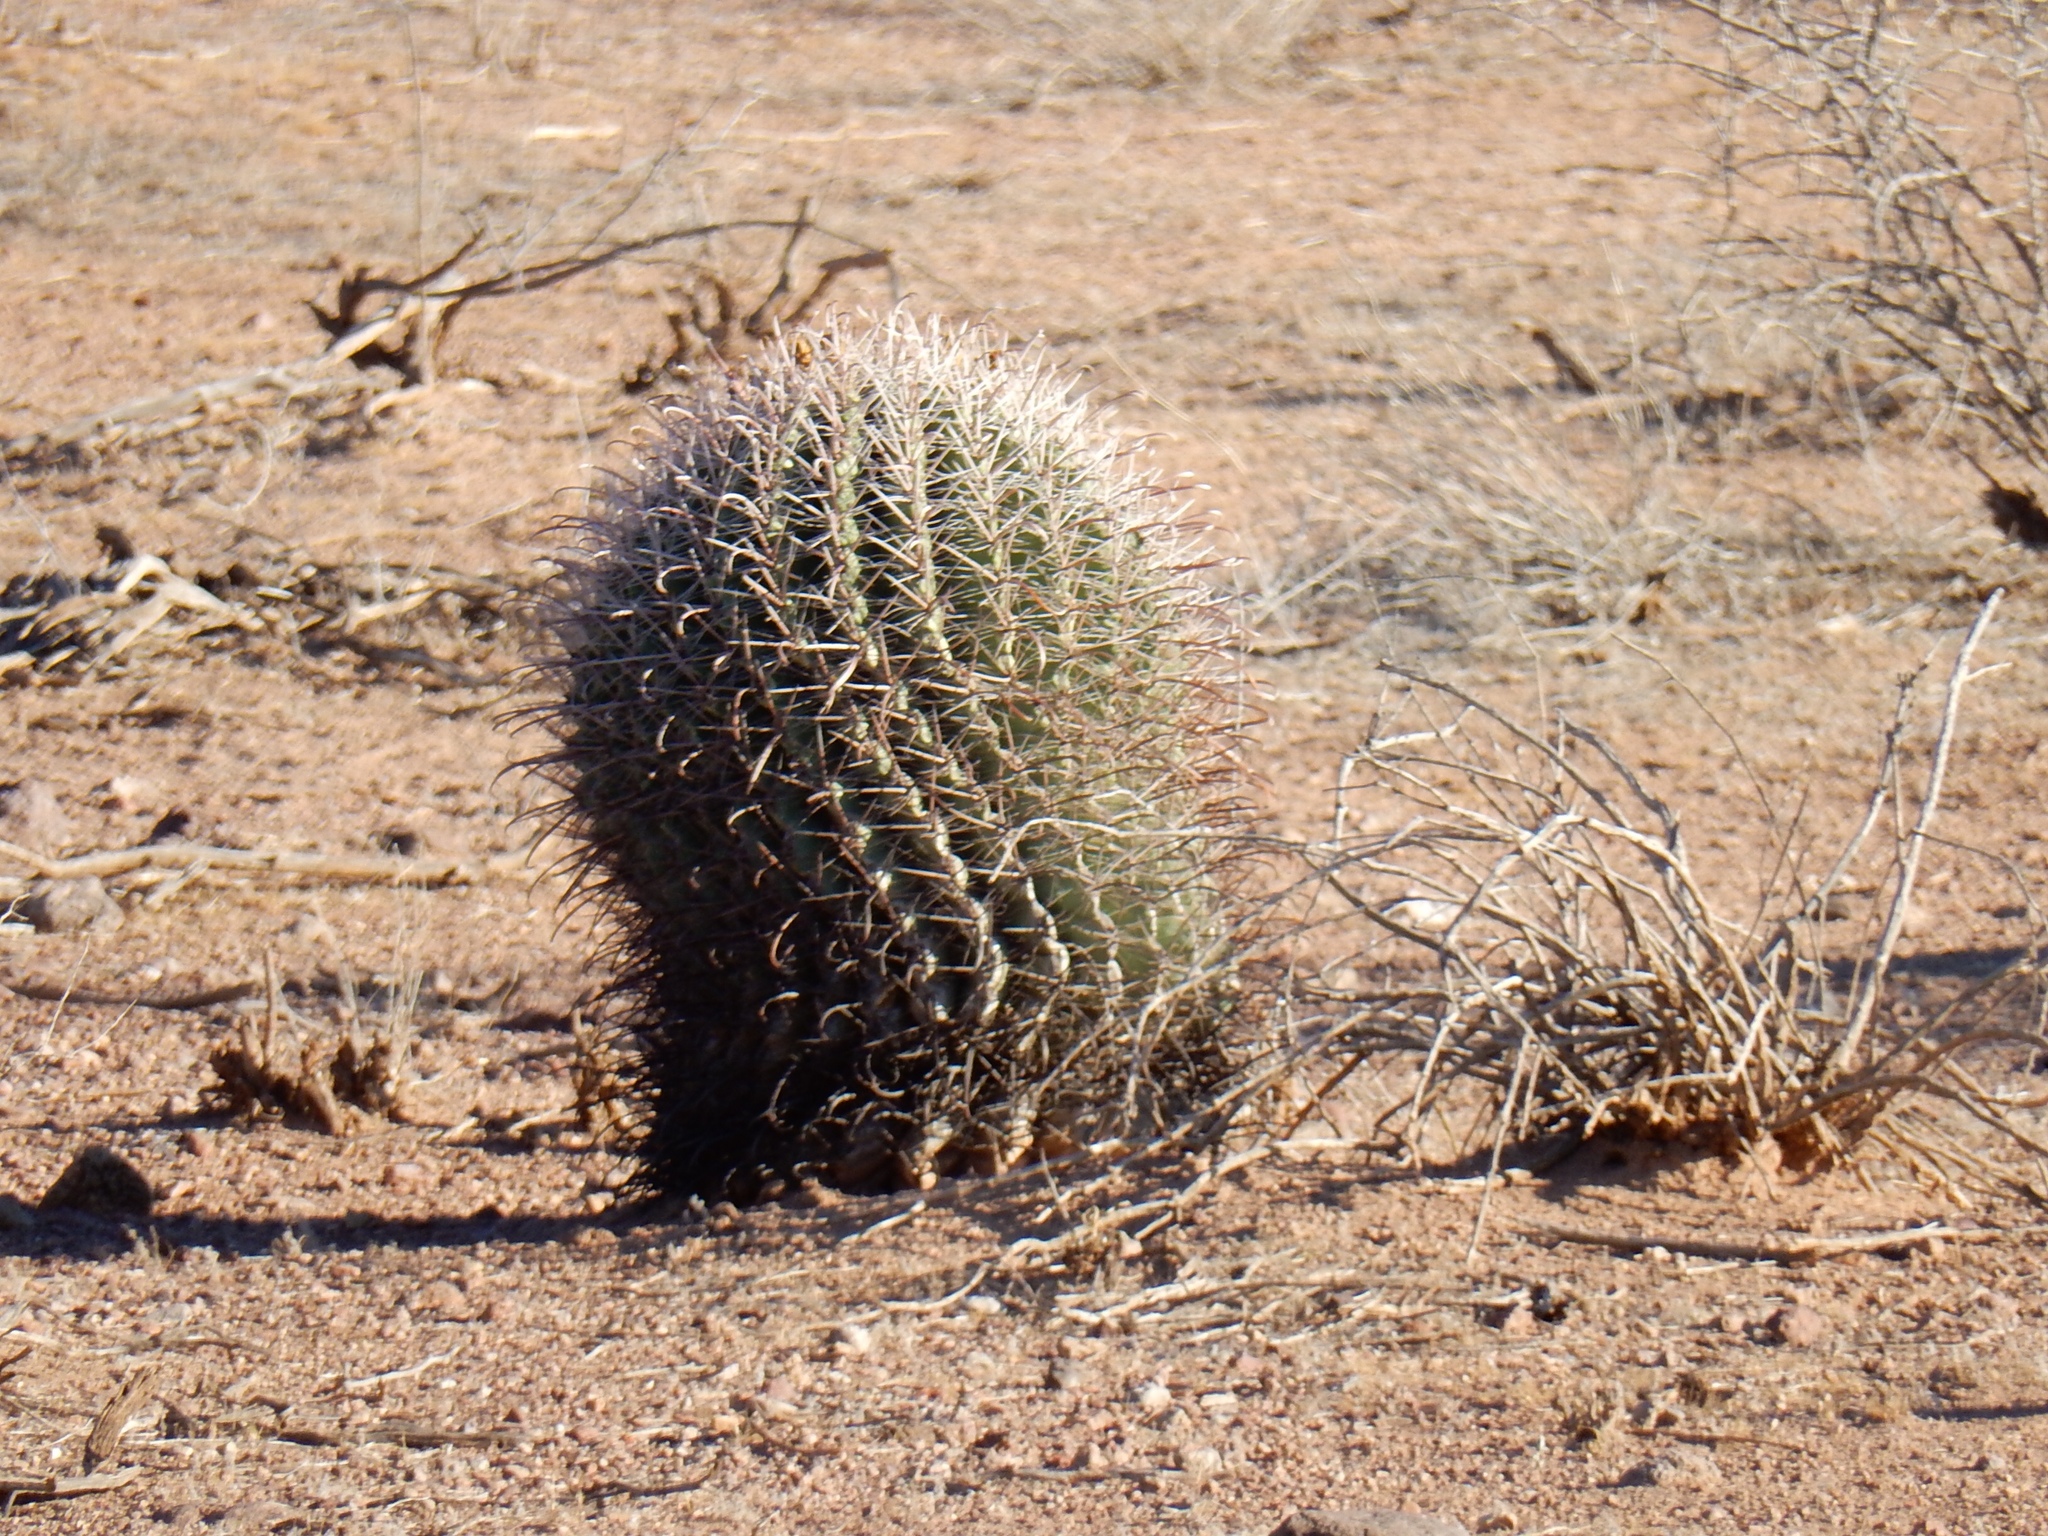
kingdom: Plantae
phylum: Tracheophyta
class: Magnoliopsida
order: Caryophyllales
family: Cactaceae
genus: Ferocactus
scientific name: Ferocactus wislizeni
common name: Candy barrel cactus
